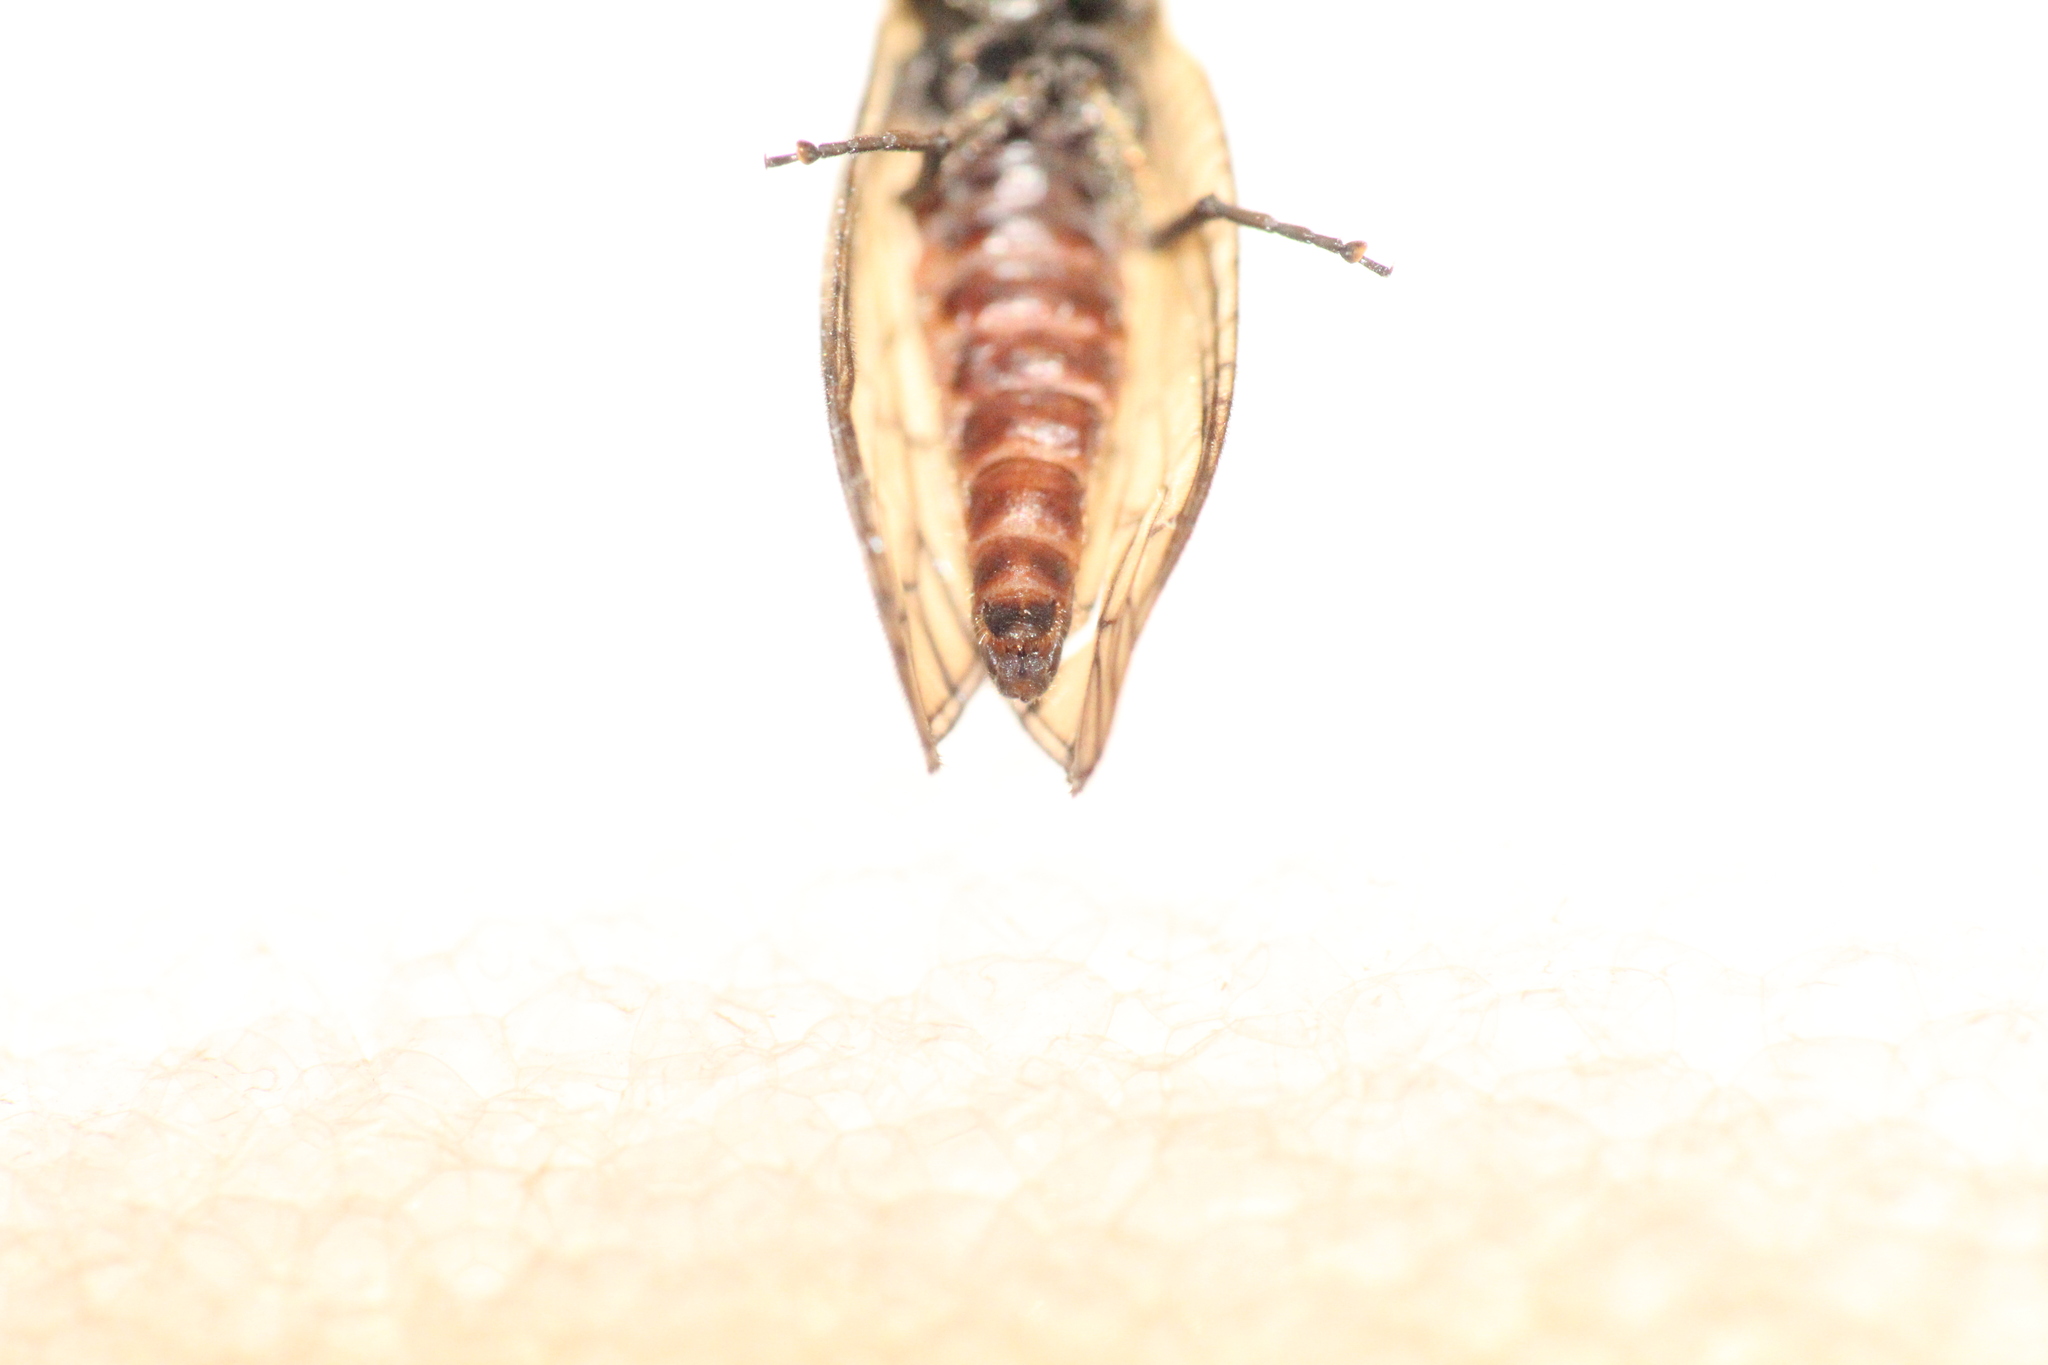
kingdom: Animalia
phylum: Arthropoda
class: Insecta
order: Megaloptera
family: Sialidae
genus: Sialis
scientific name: Sialis lutaria
